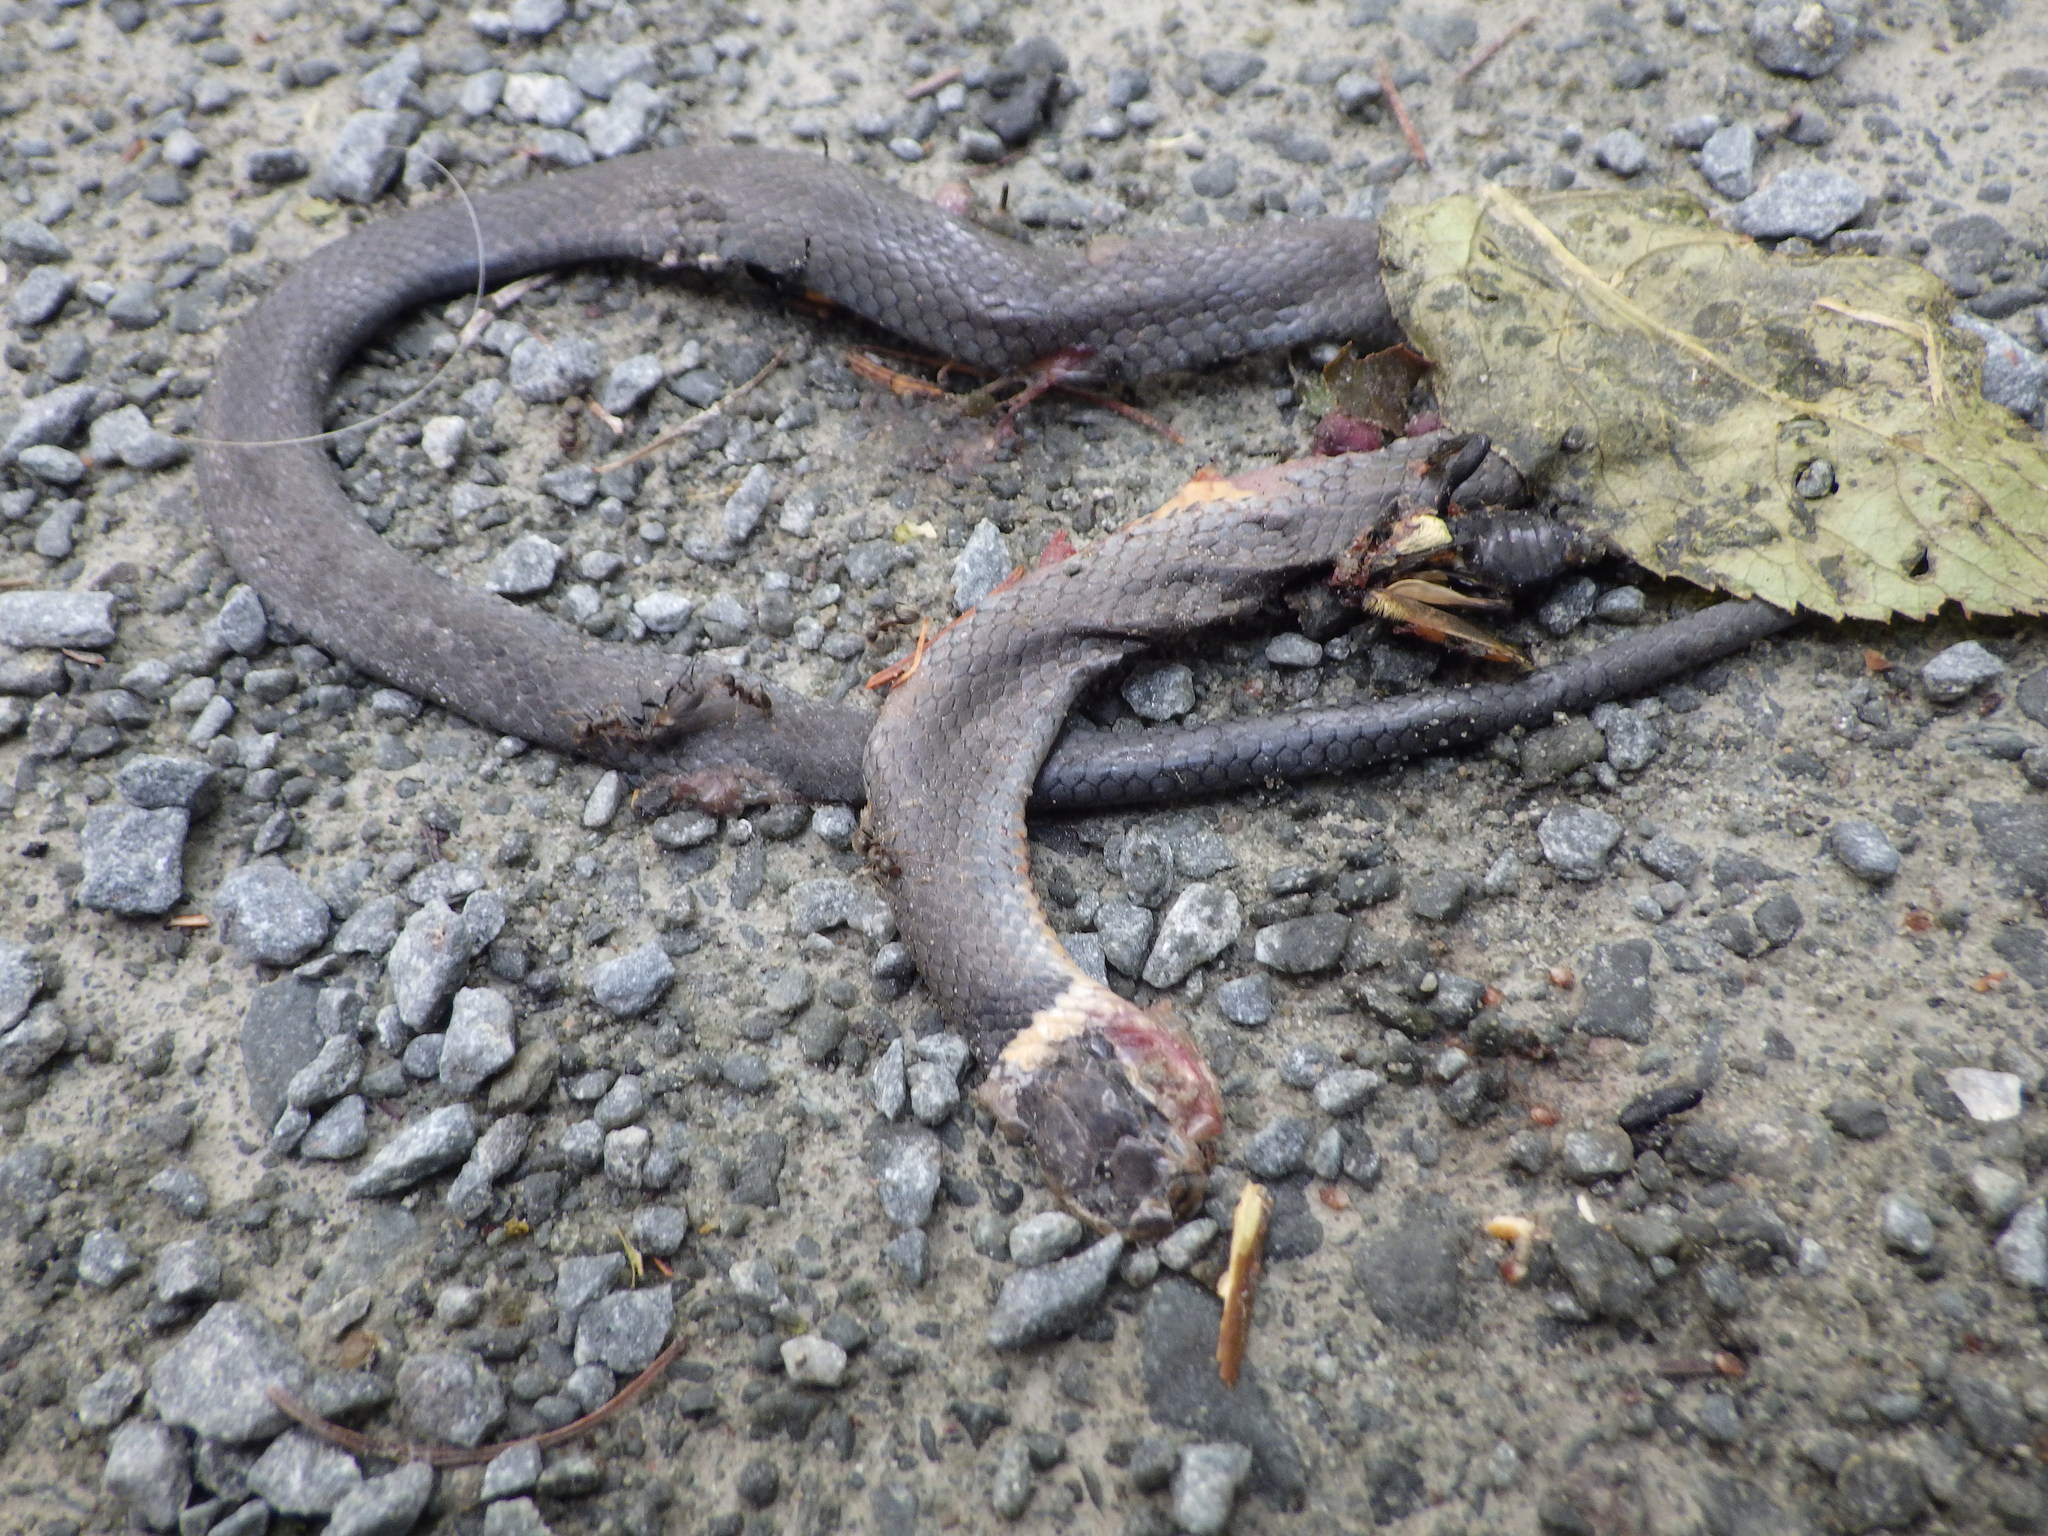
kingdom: Animalia
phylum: Chordata
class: Squamata
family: Colubridae
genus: Diadophis
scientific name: Diadophis punctatus
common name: Ringneck snake
